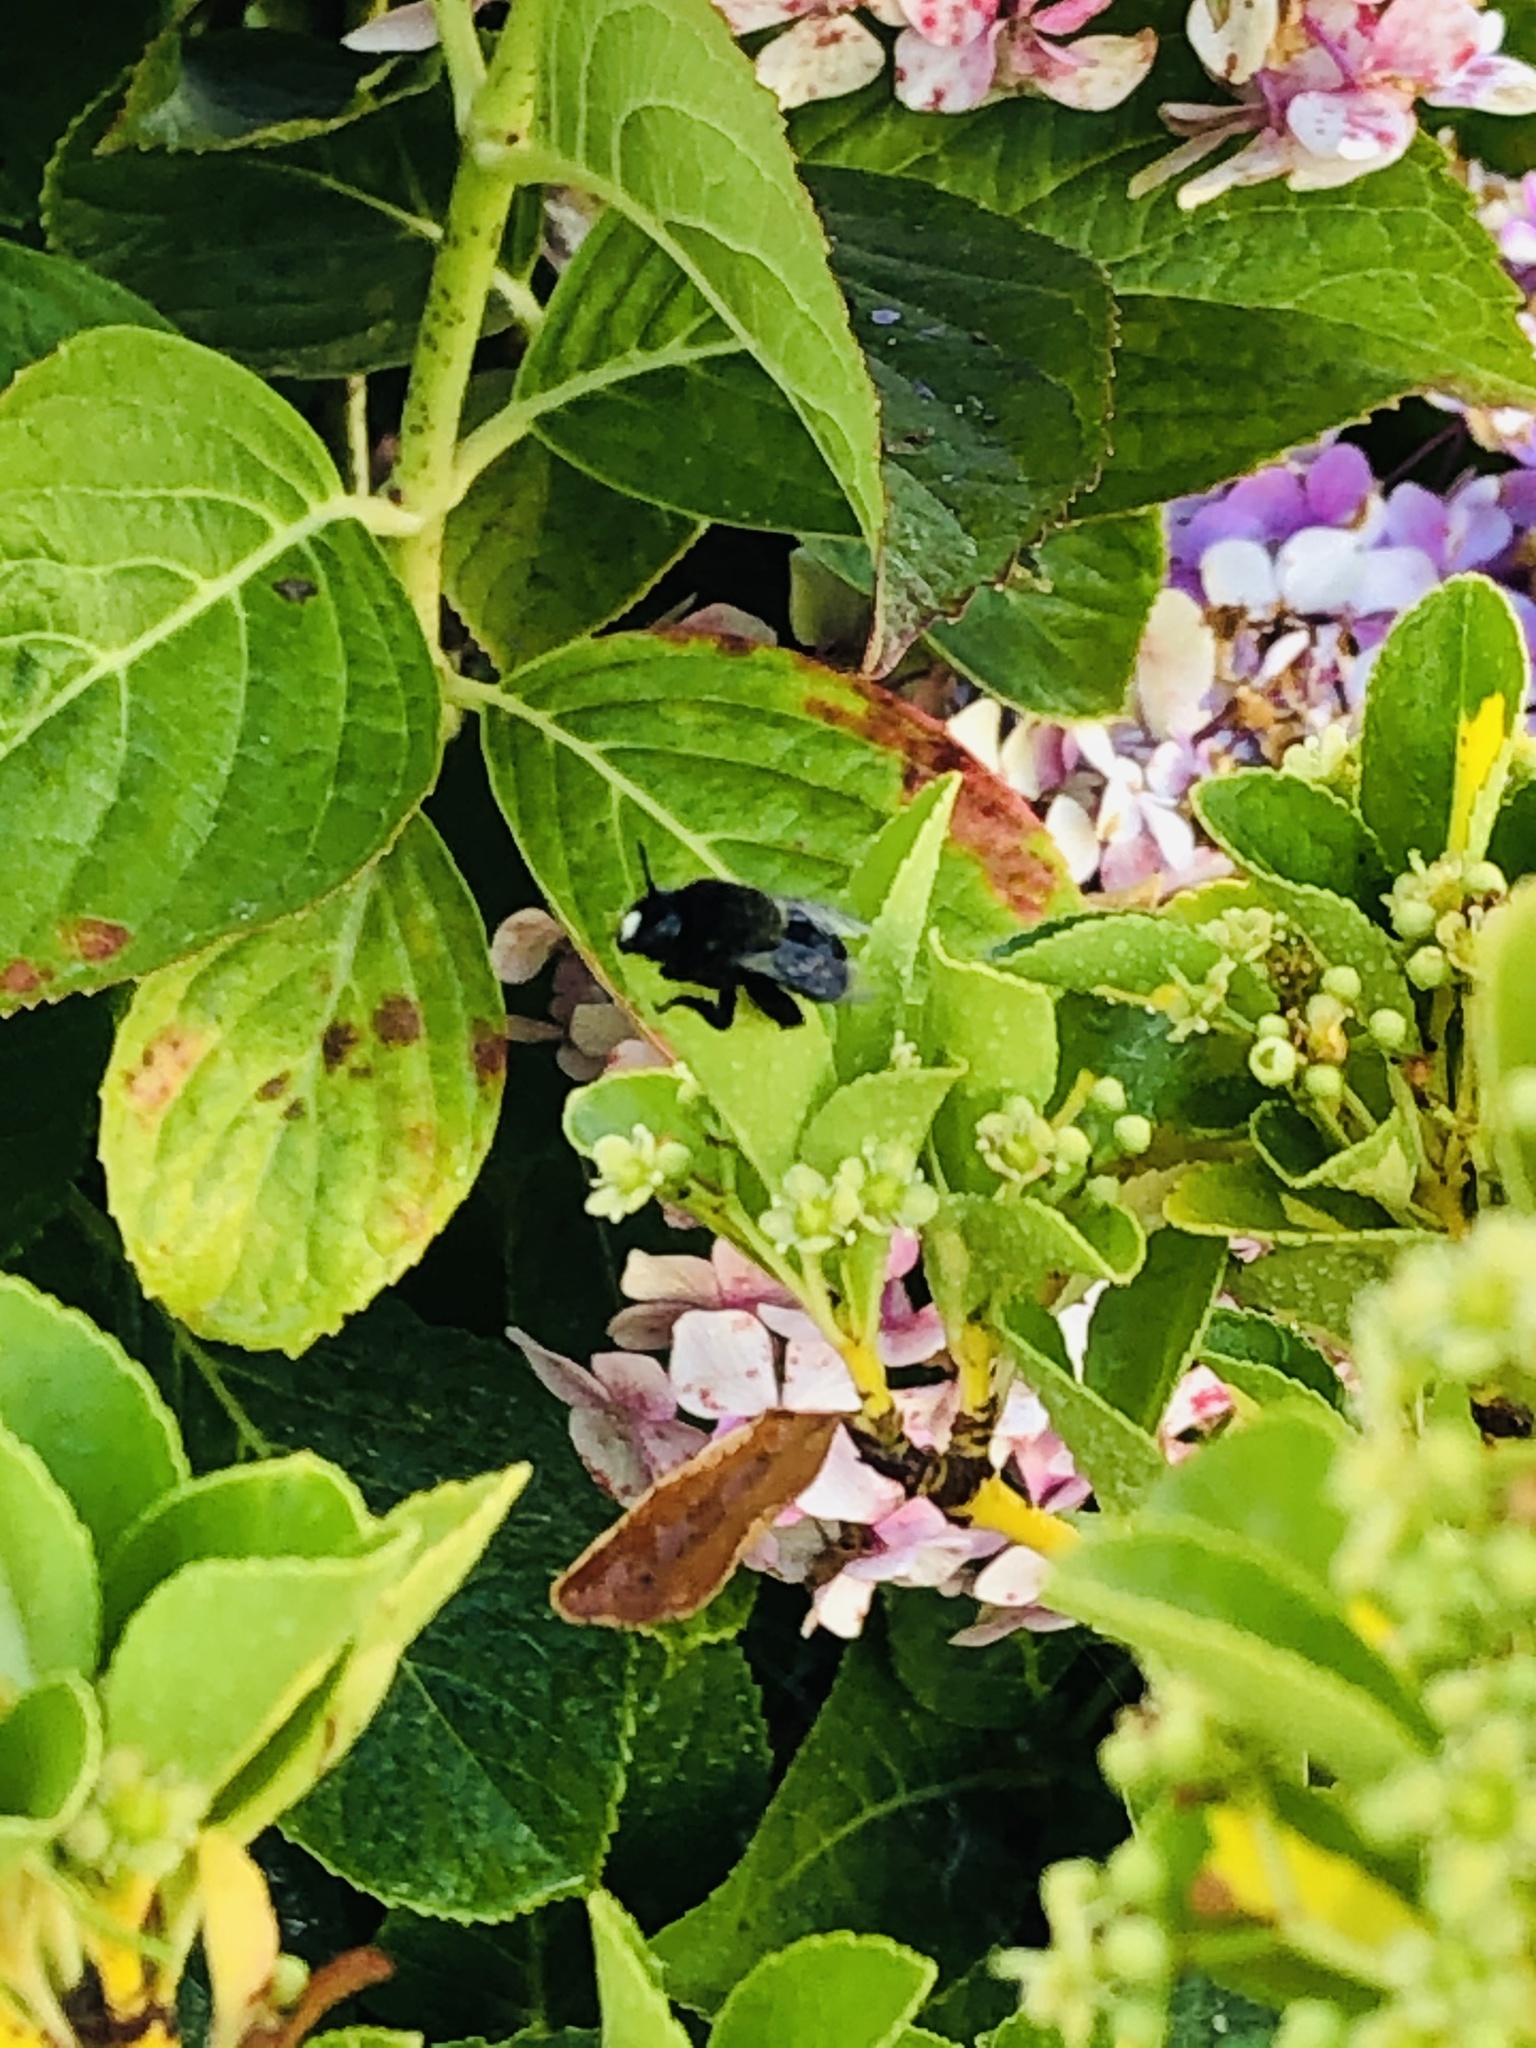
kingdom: Animalia
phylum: Arthropoda
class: Insecta
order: Hymenoptera
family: Apidae
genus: Centris
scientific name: Centris nigerrima
